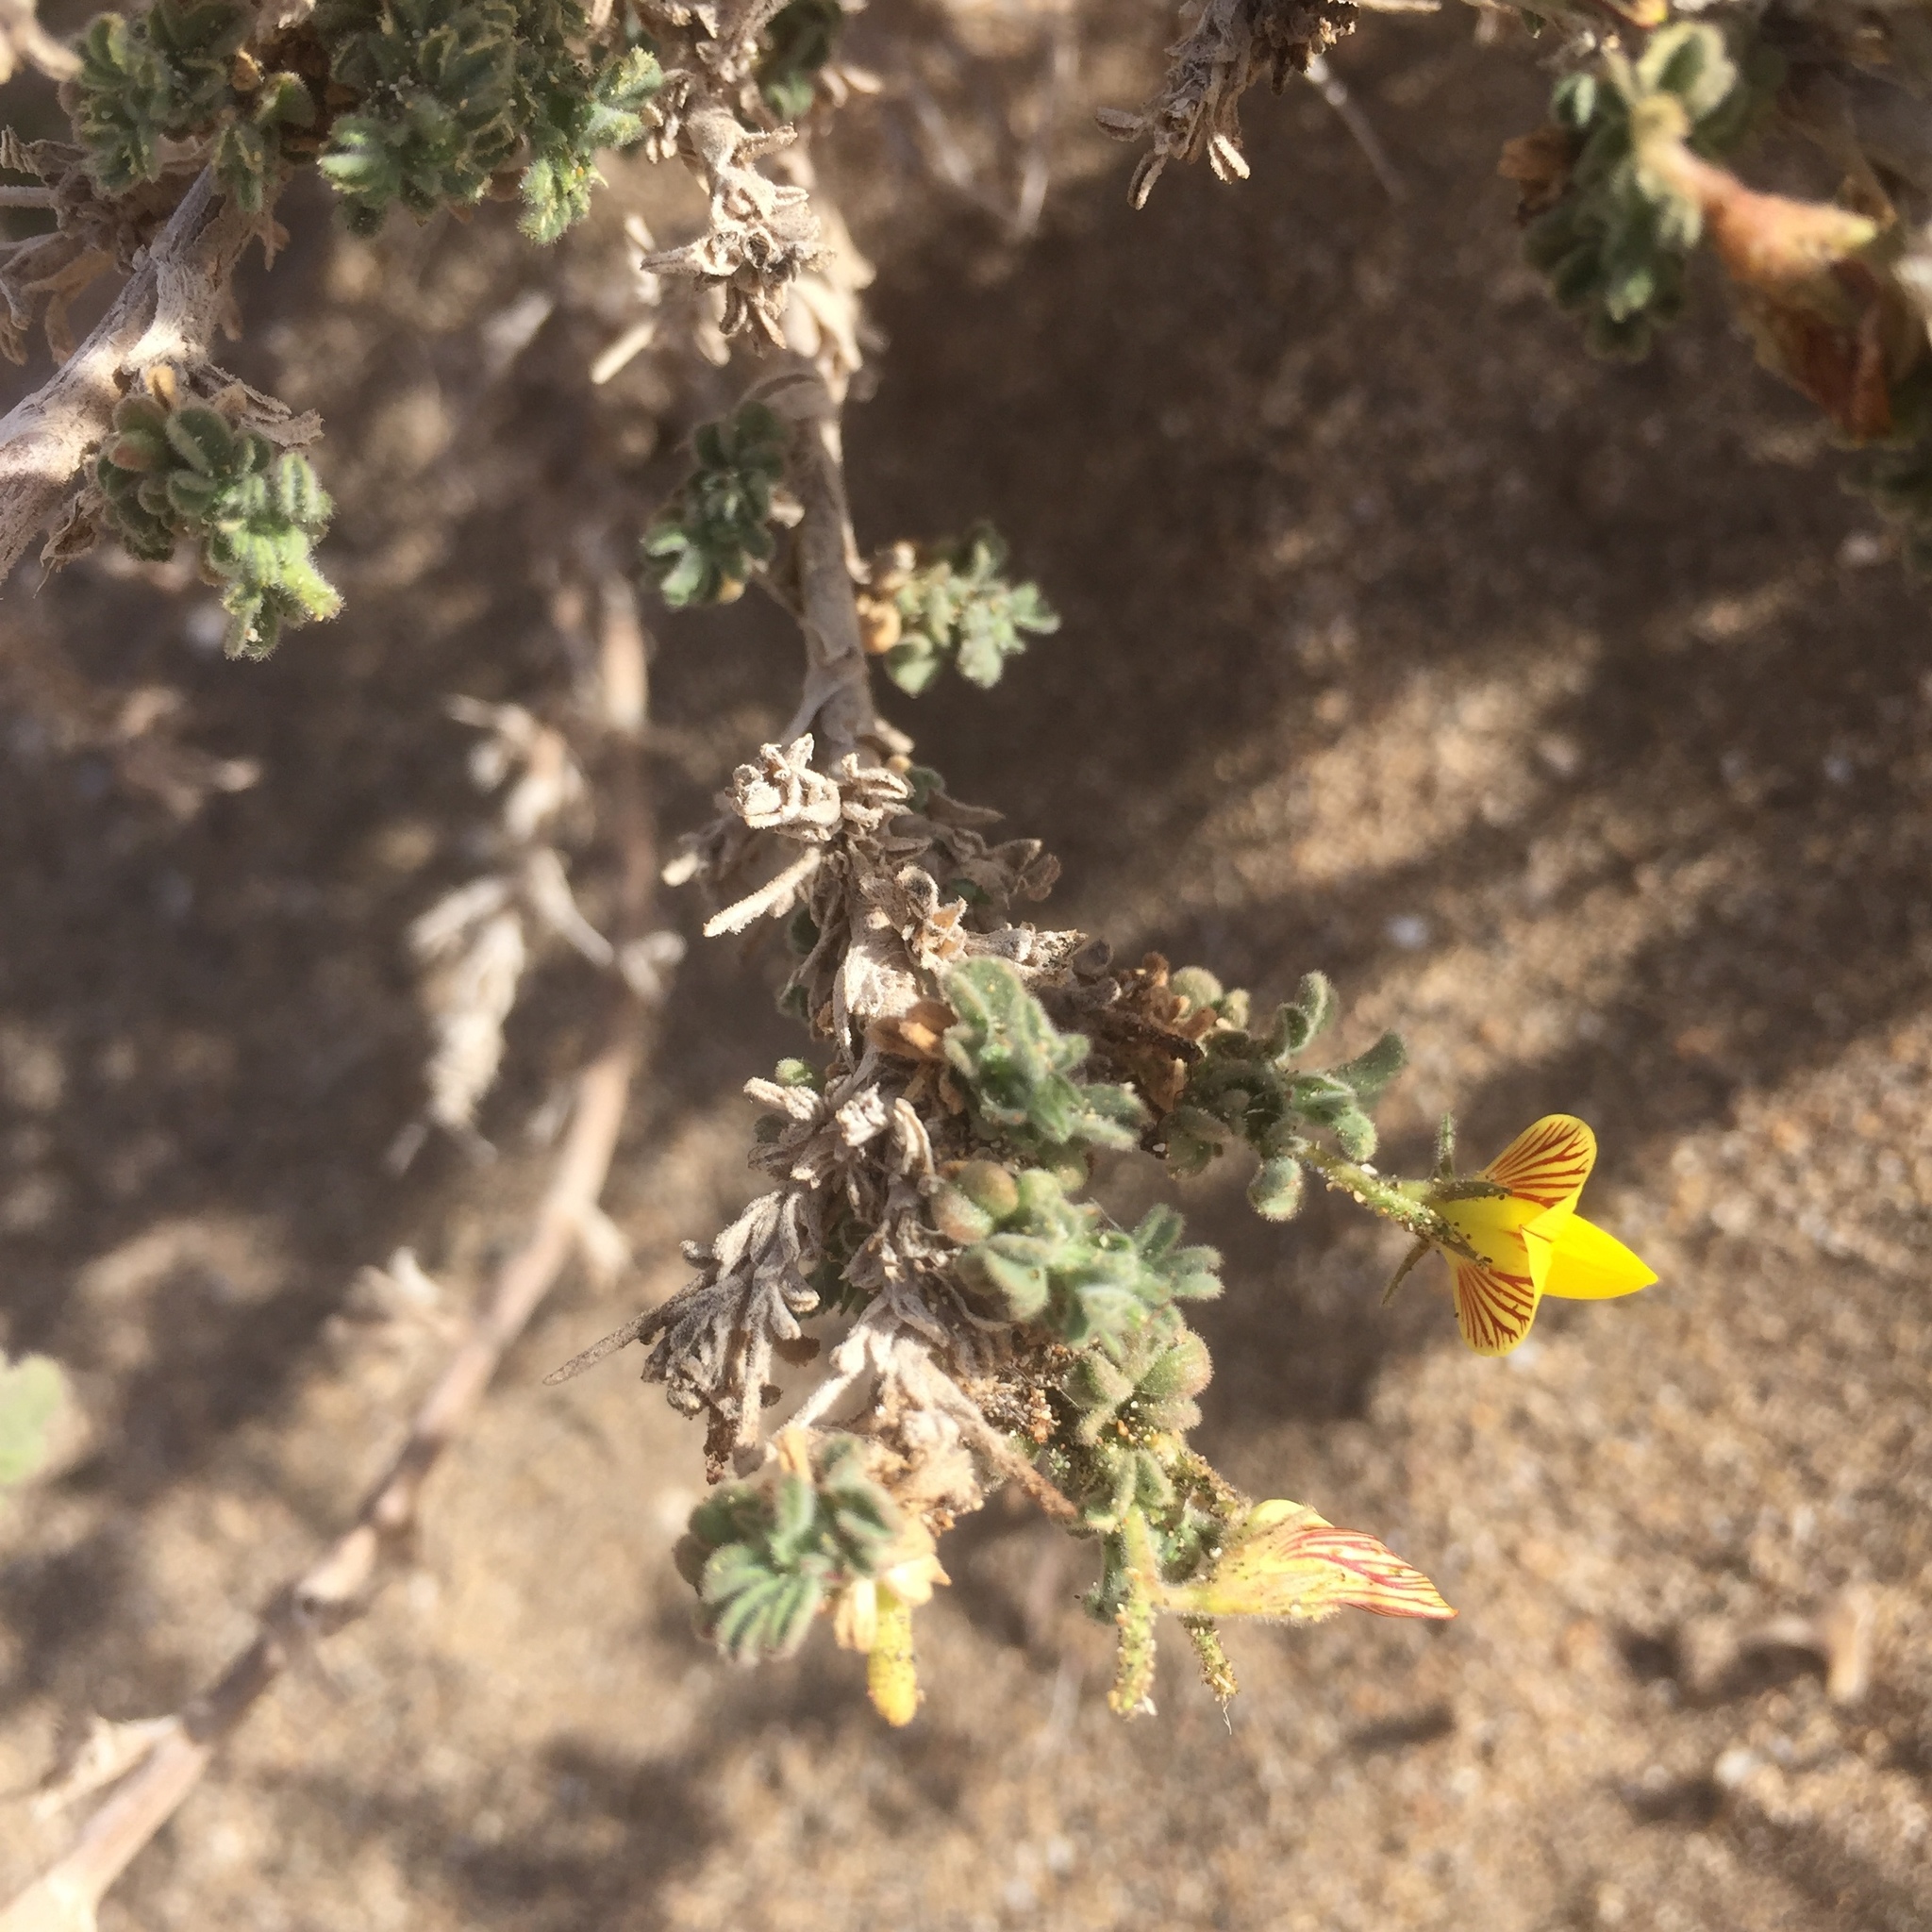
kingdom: Plantae
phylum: Tracheophyta
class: Magnoliopsida
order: Fabales
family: Fabaceae
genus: Ononis
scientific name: Ononis natrix
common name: Yellow restharrow
